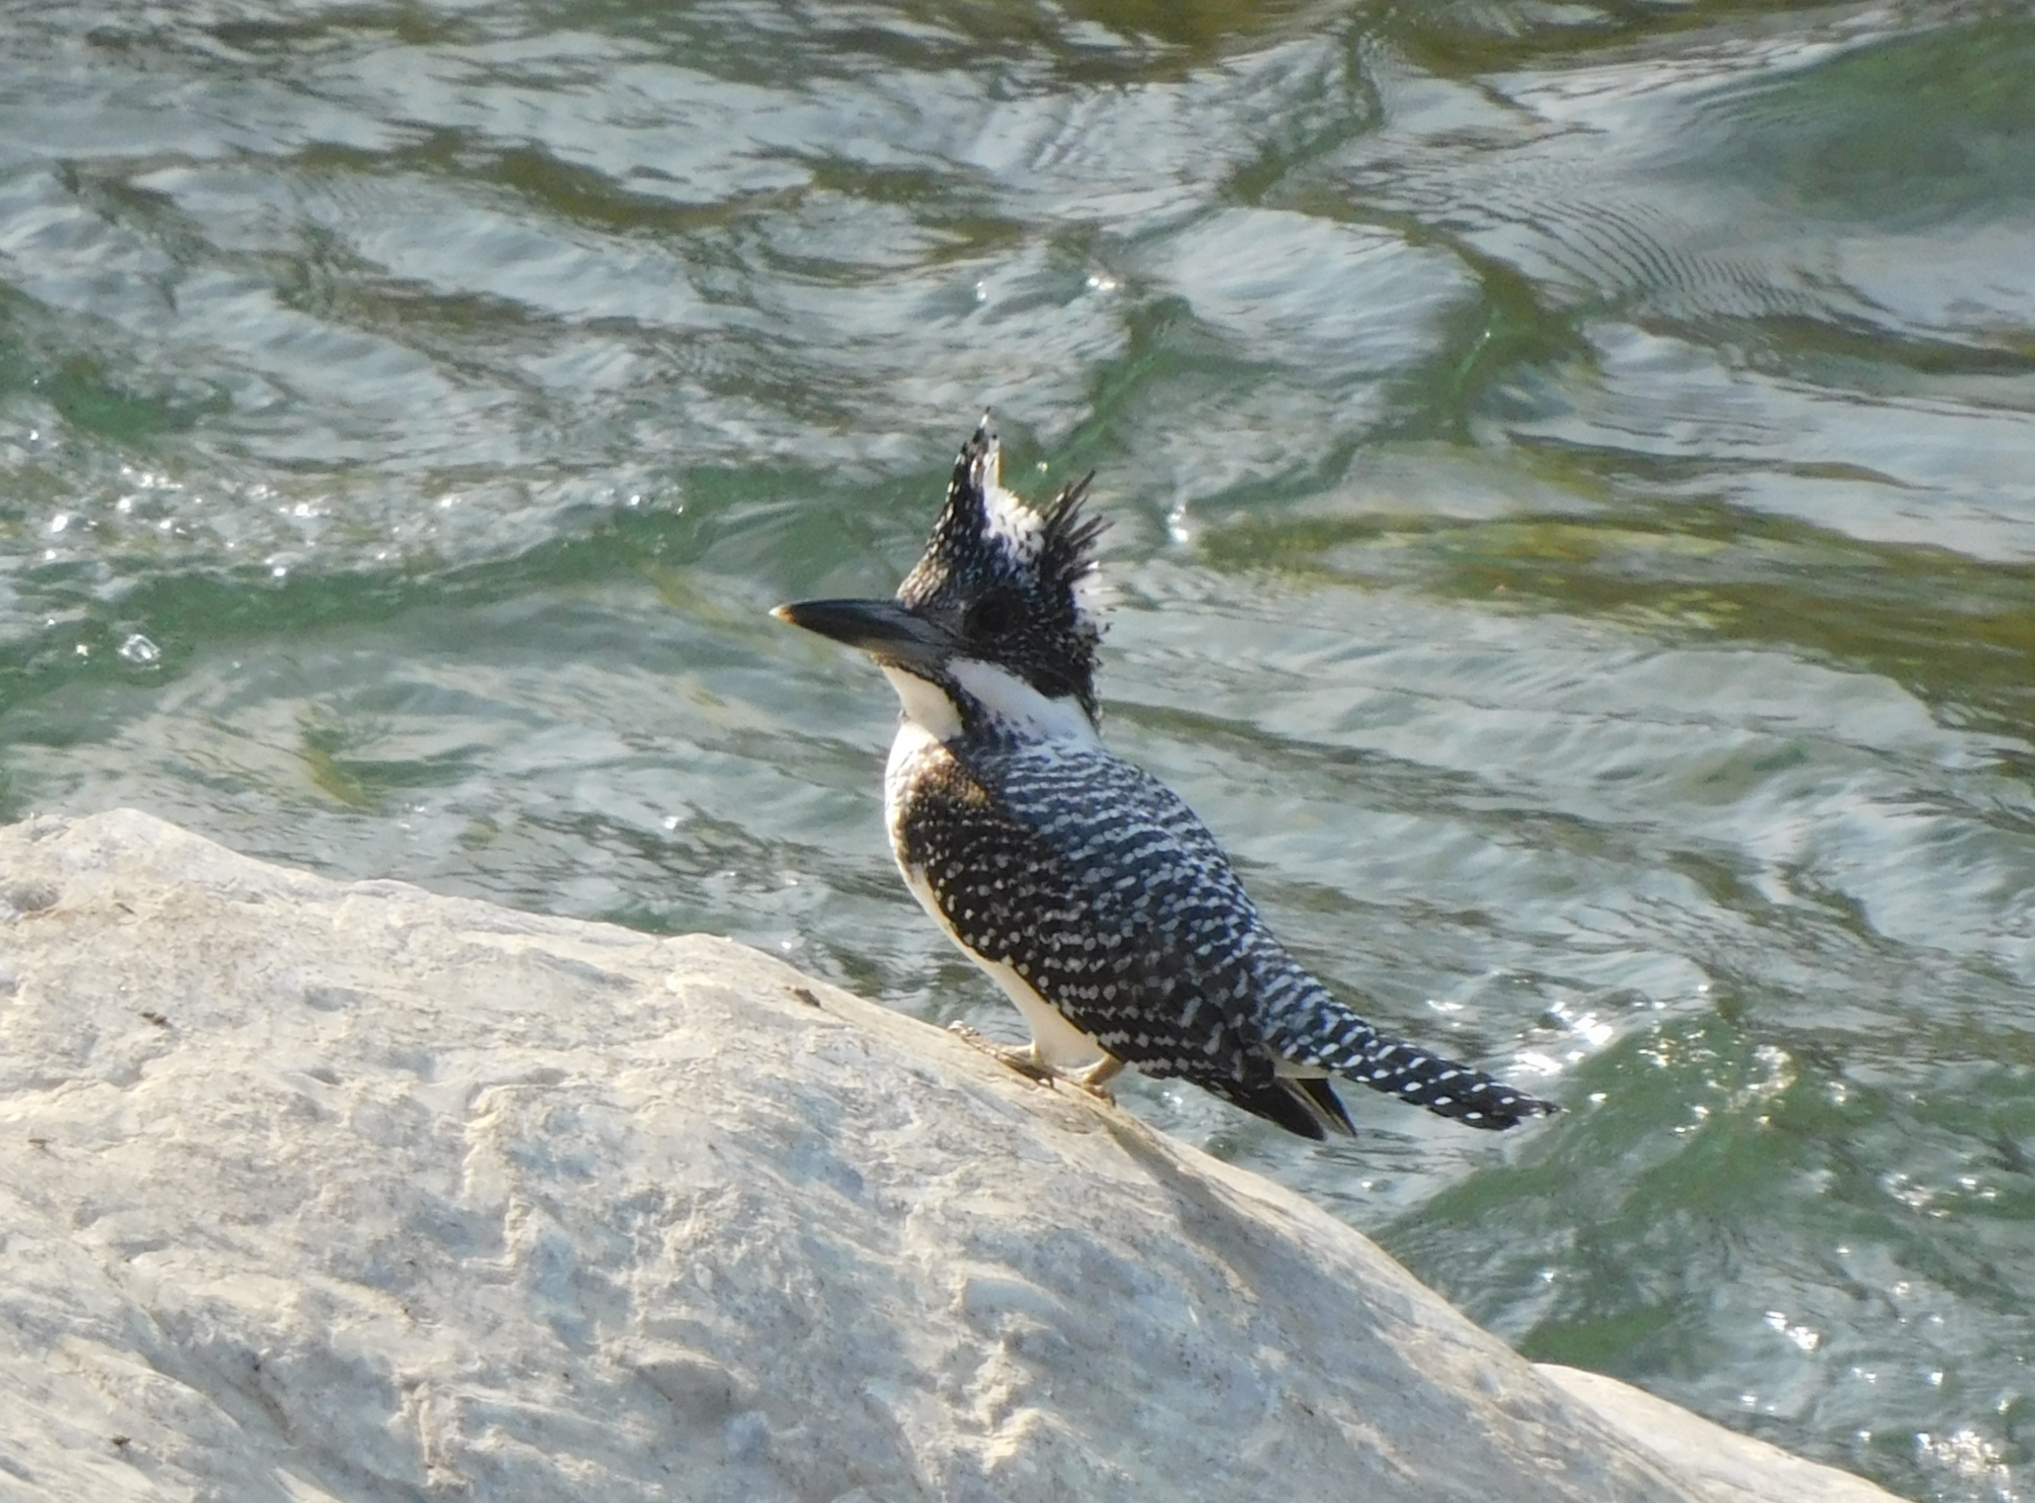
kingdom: Animalia
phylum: Chordata
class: Aves
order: Coraciiformes
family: Alcedinidae
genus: Megaceryle
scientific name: Megaceryle lugubris
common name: Crested kingfisher
